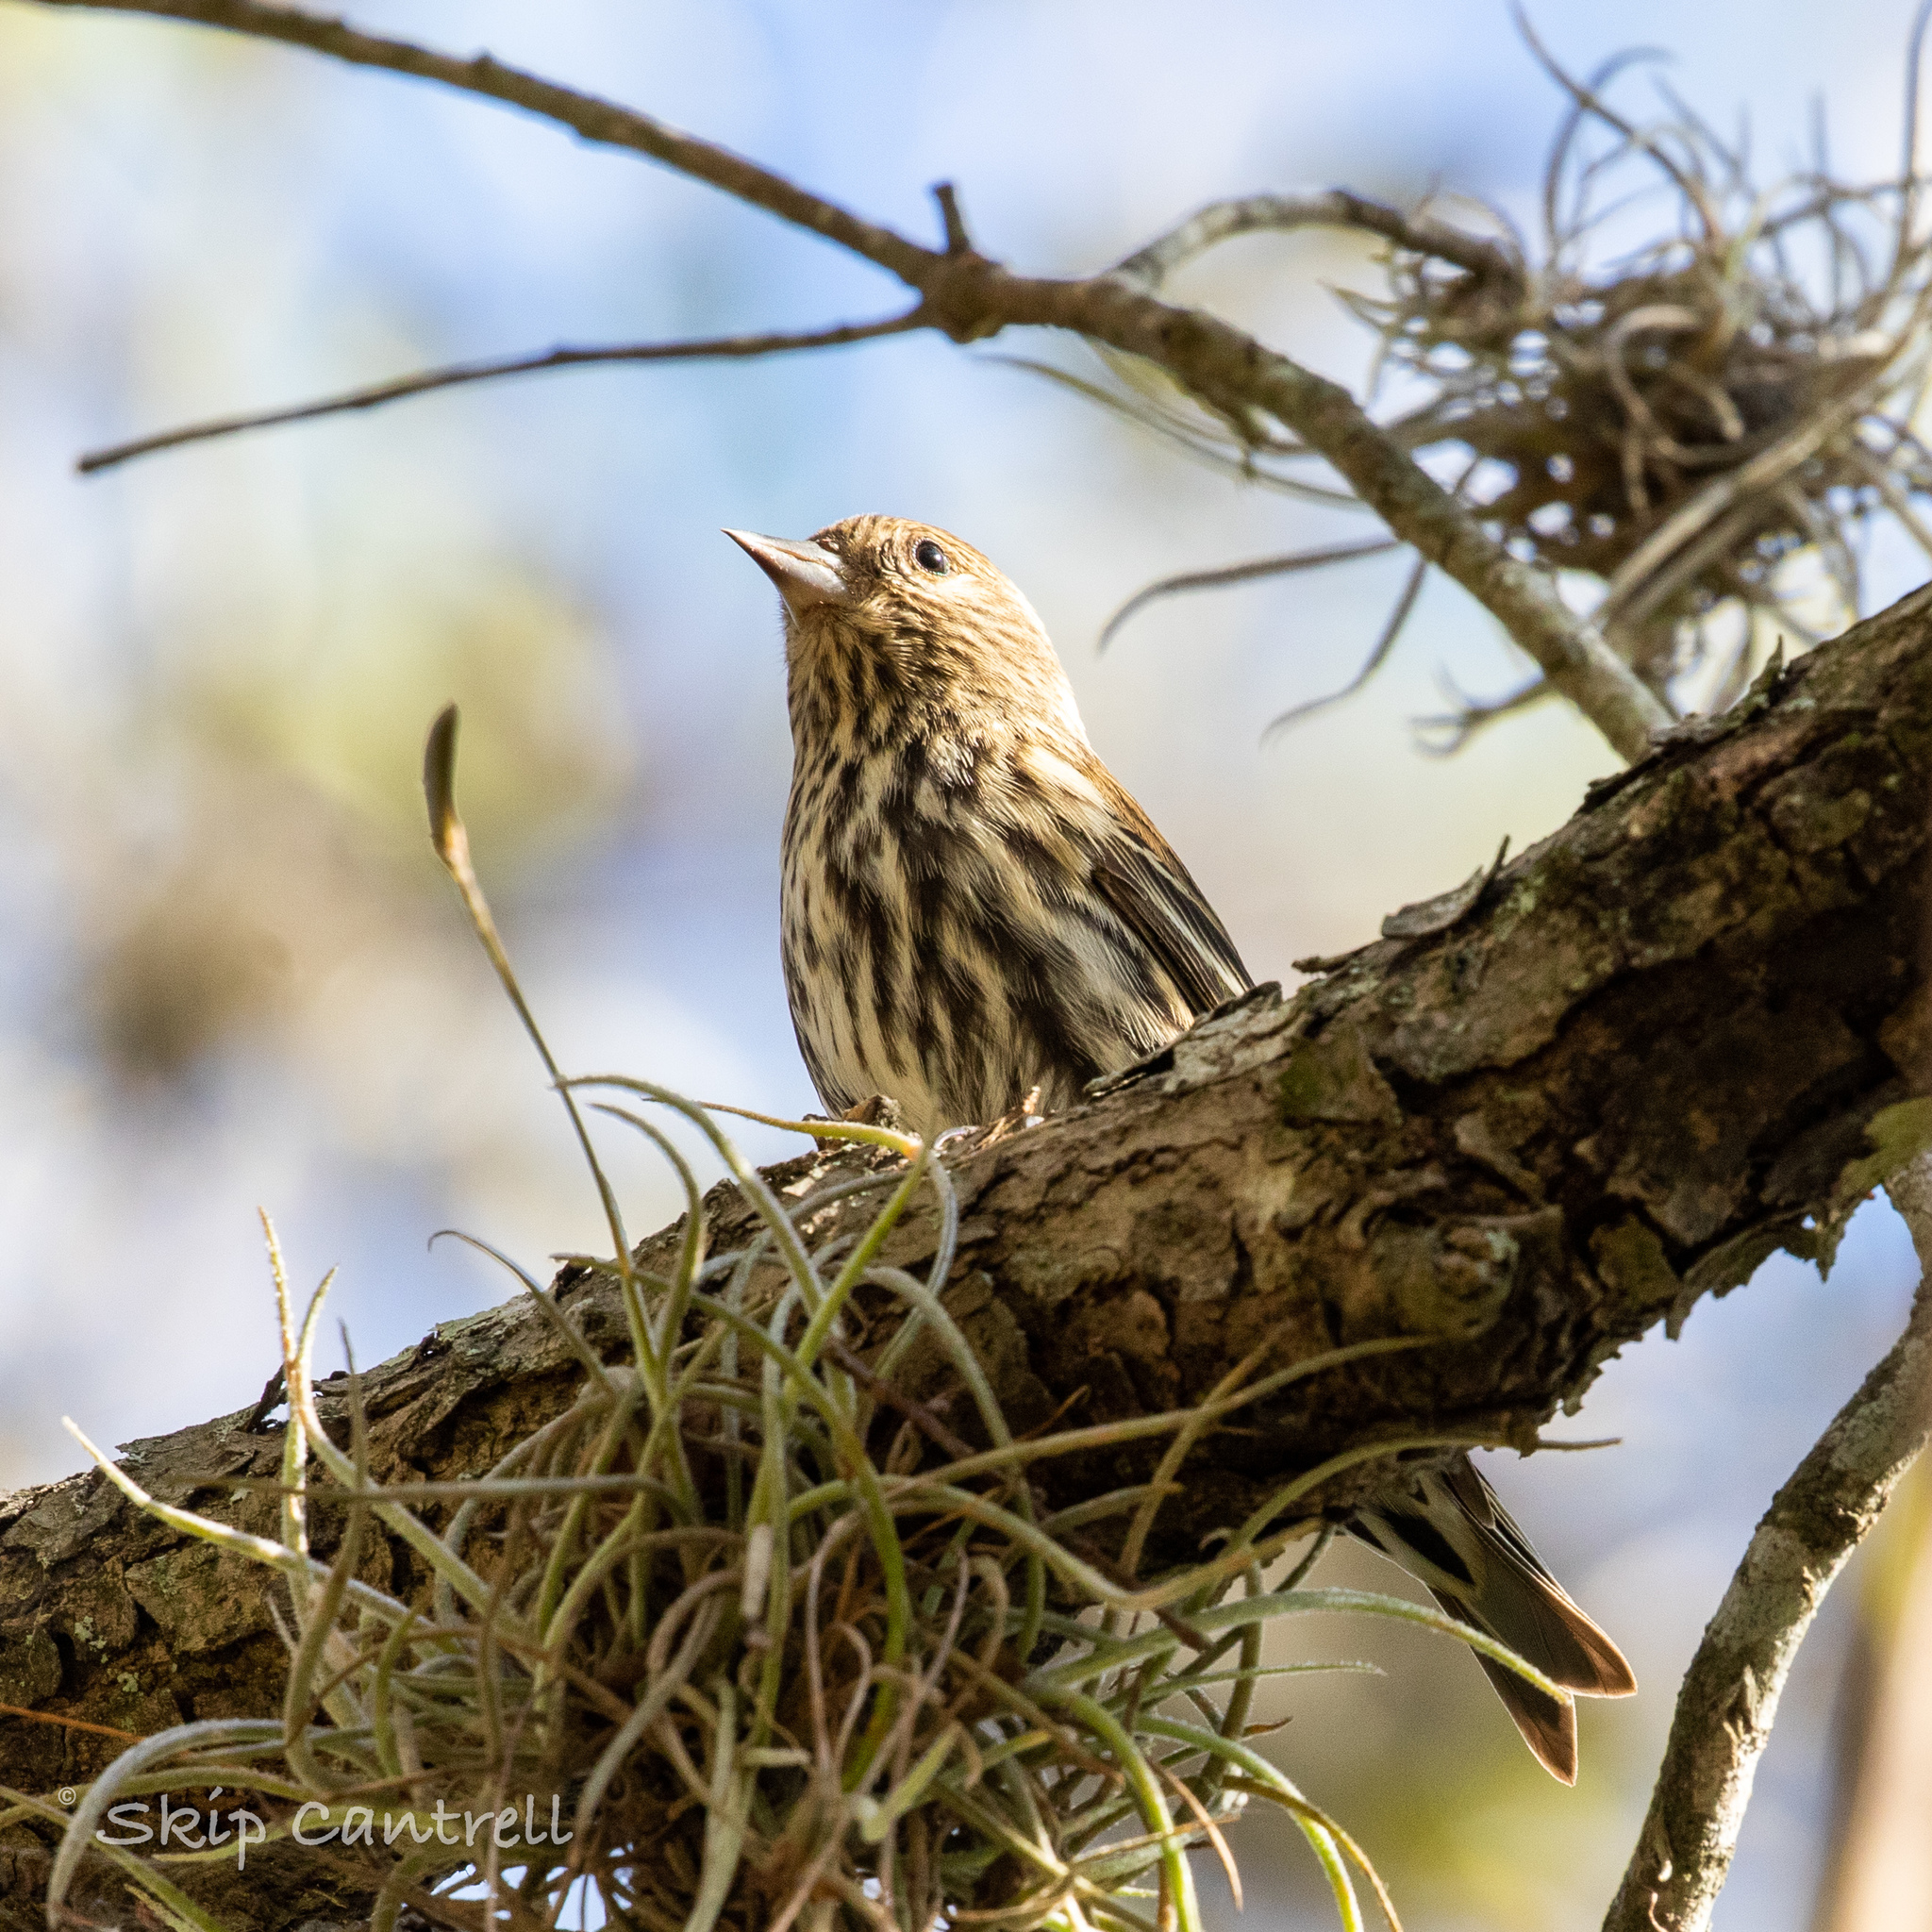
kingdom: Animalia
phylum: Chordata
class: Aves
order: Passeriformes
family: Fringillidae
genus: Spinus
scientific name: Spinus pinus
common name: Pine siskin
